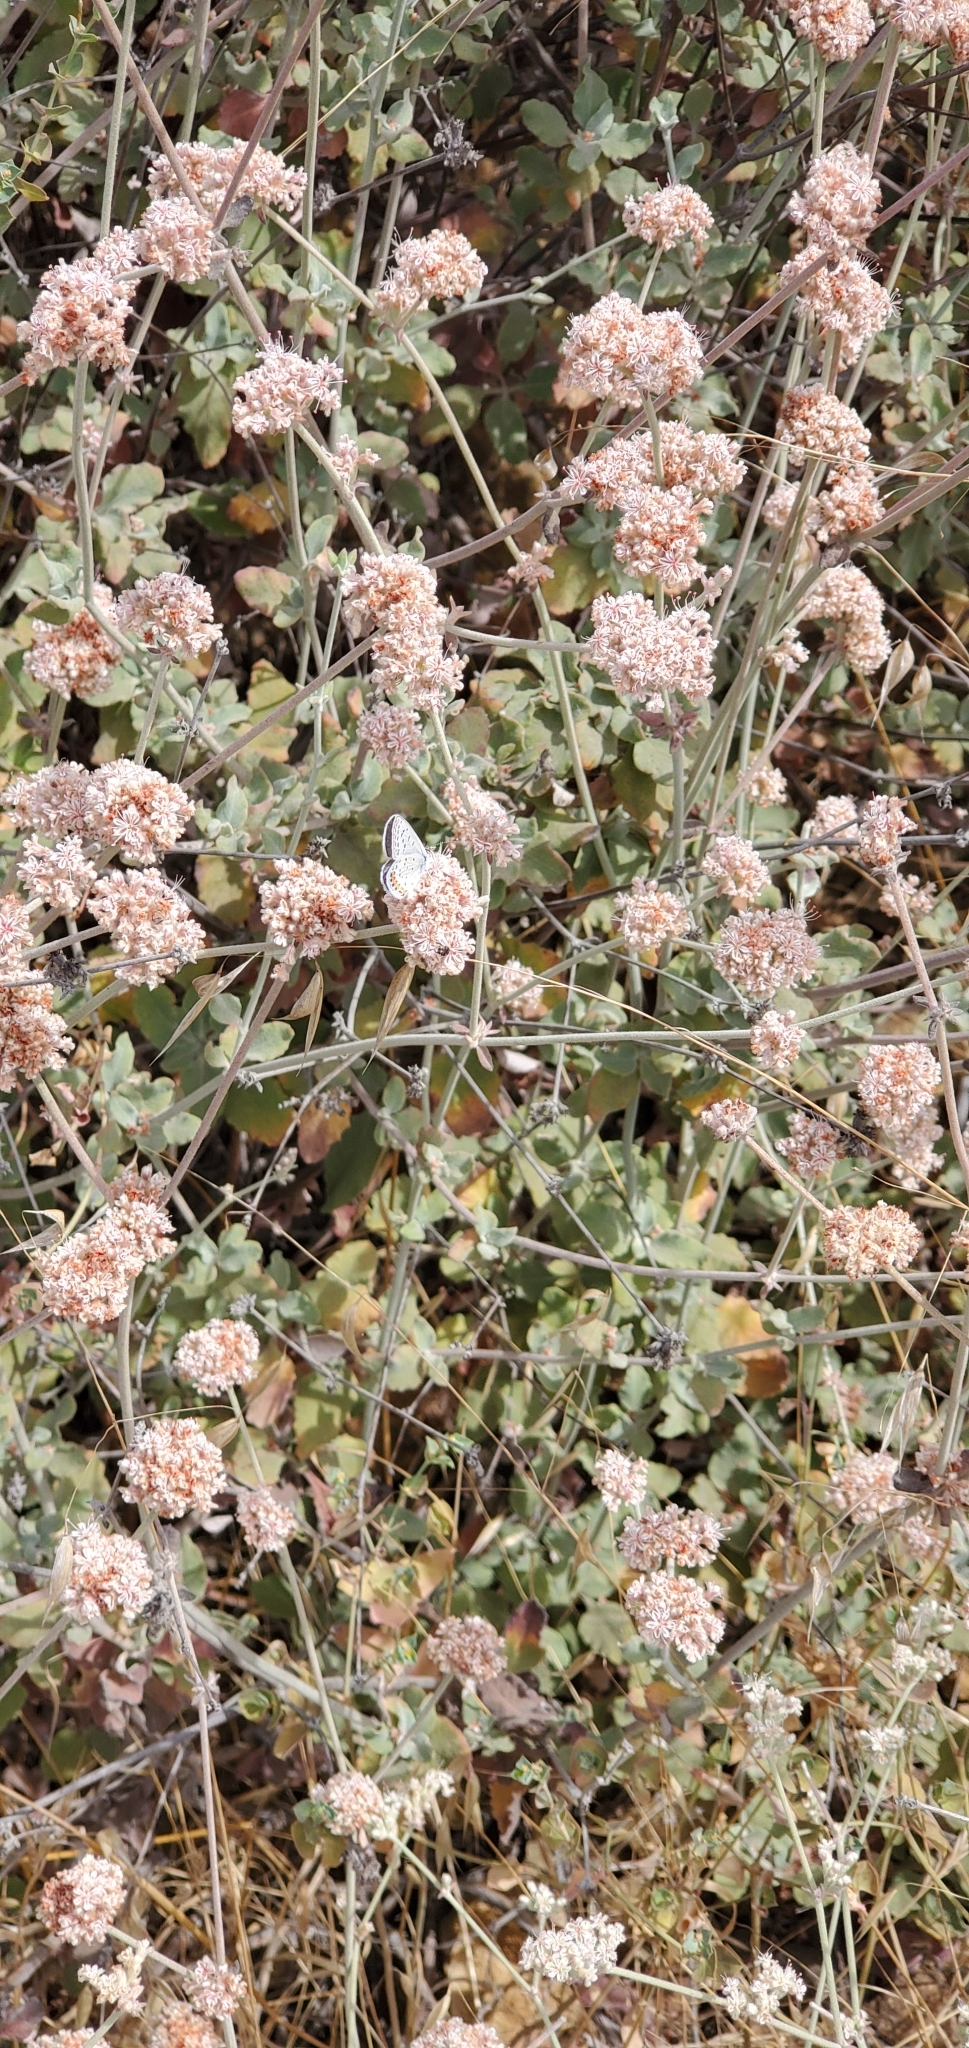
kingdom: Plantae
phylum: Tracheophyta
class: Magnoliopsida
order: Caryophyllales
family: Polygonaceae
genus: Eriogonum
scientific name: Eriogonum cinereum
